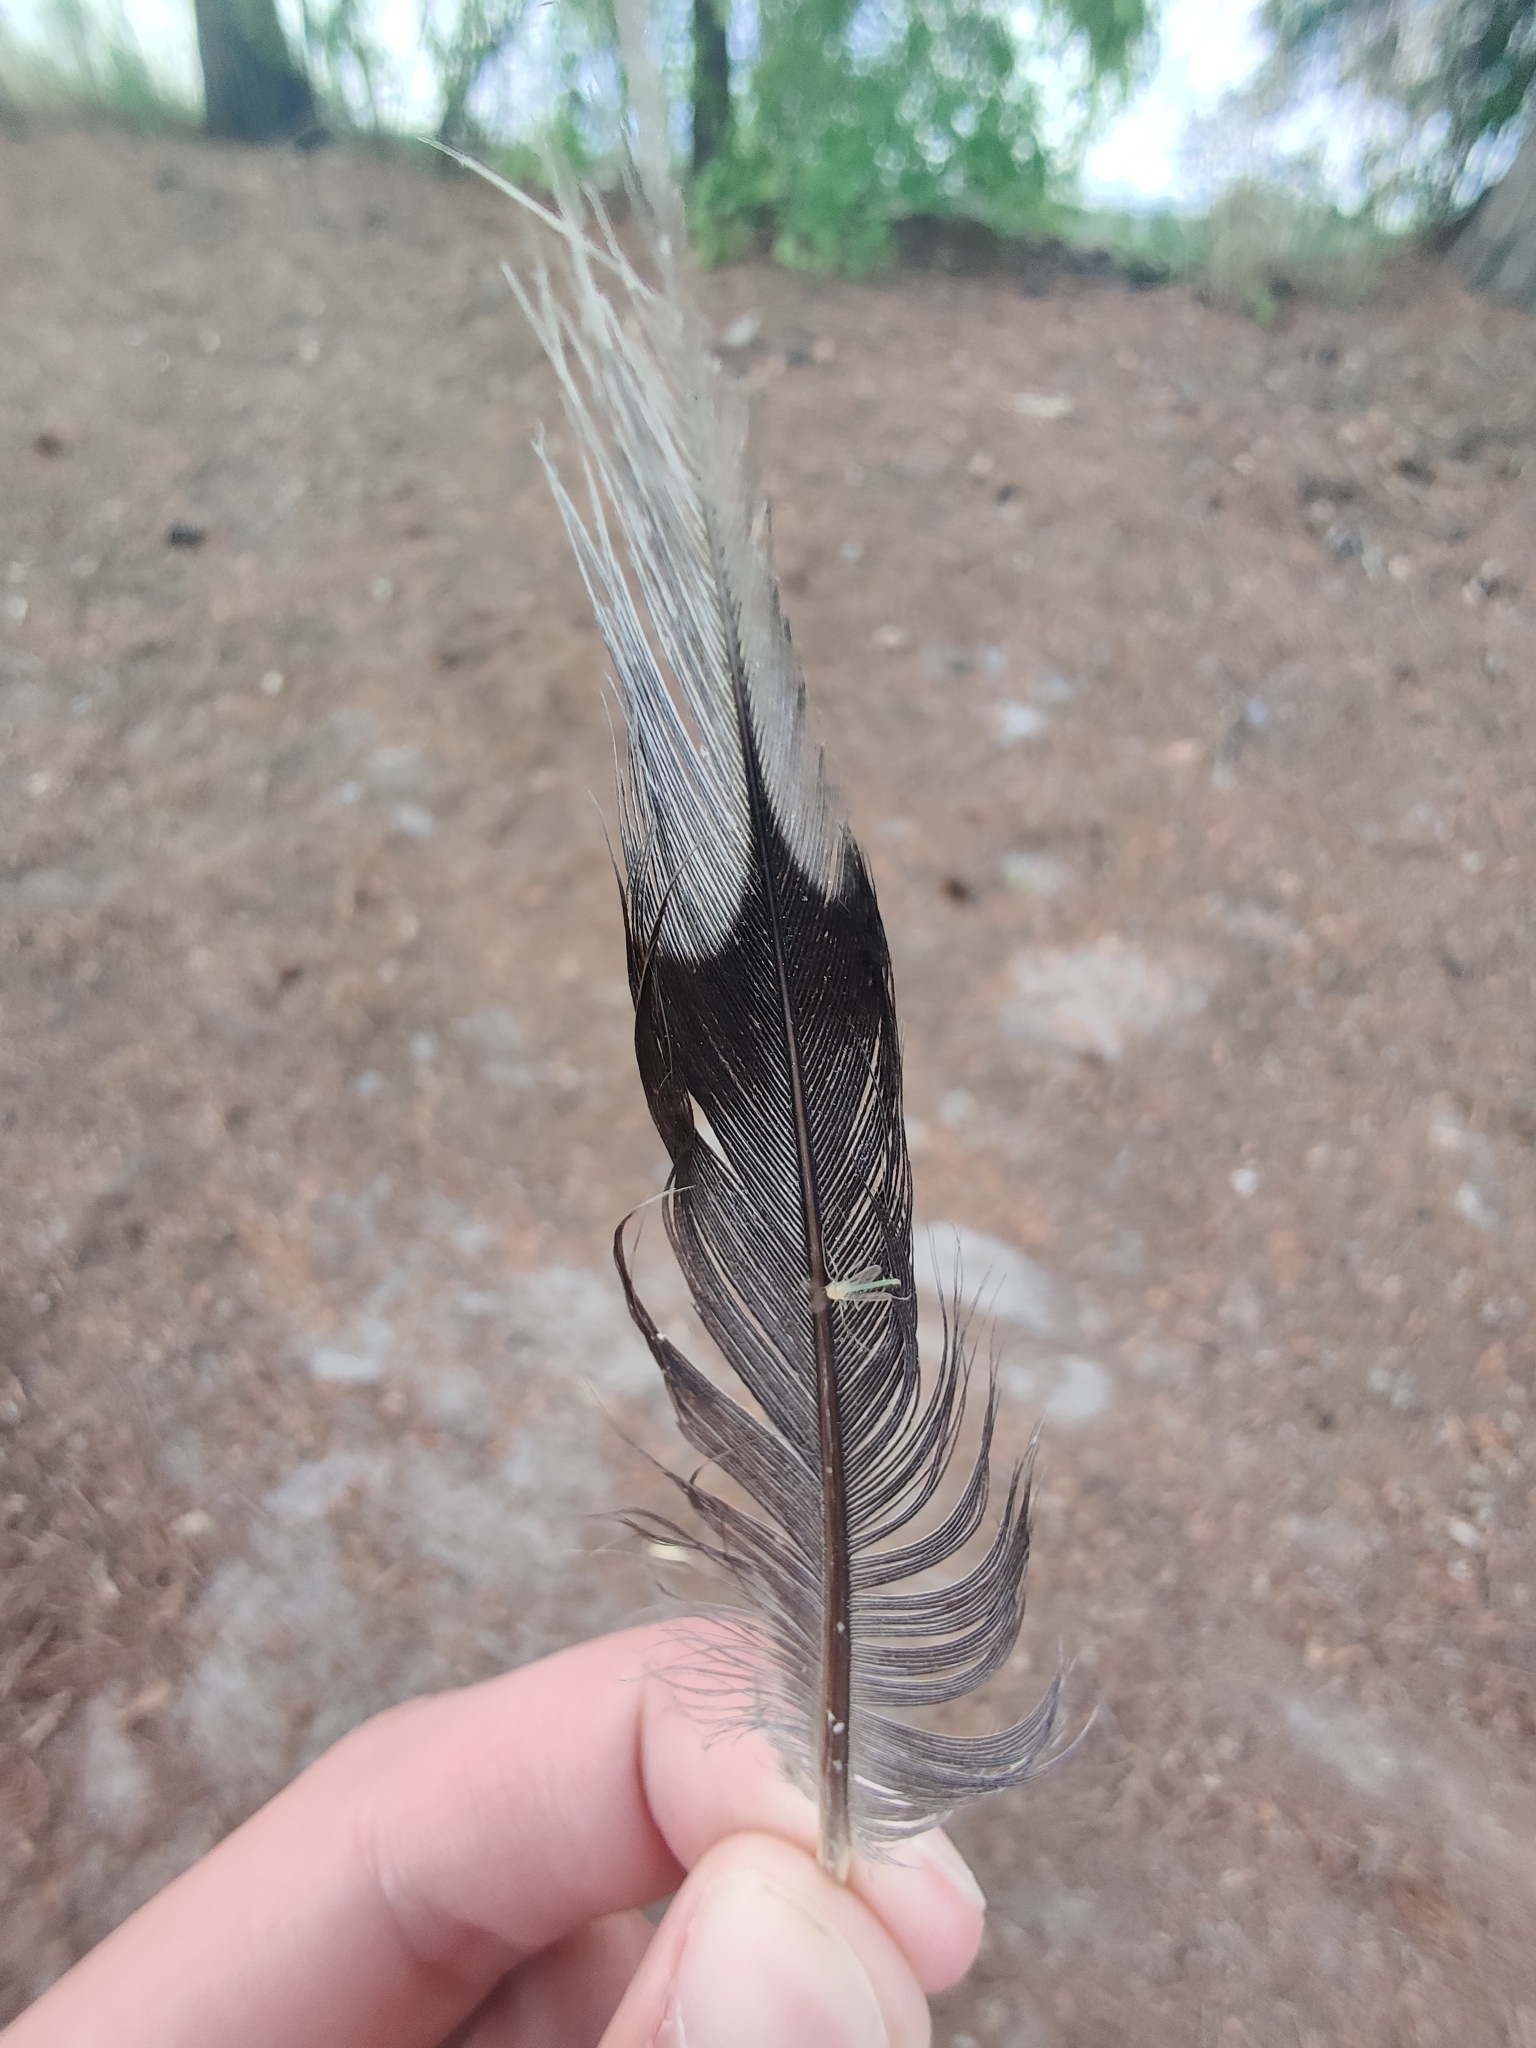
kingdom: Animalia
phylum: Chordata
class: Aves
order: Columbiformes
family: Columbidae
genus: Zenaida
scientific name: Zenaida macroura
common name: Mourning dove
